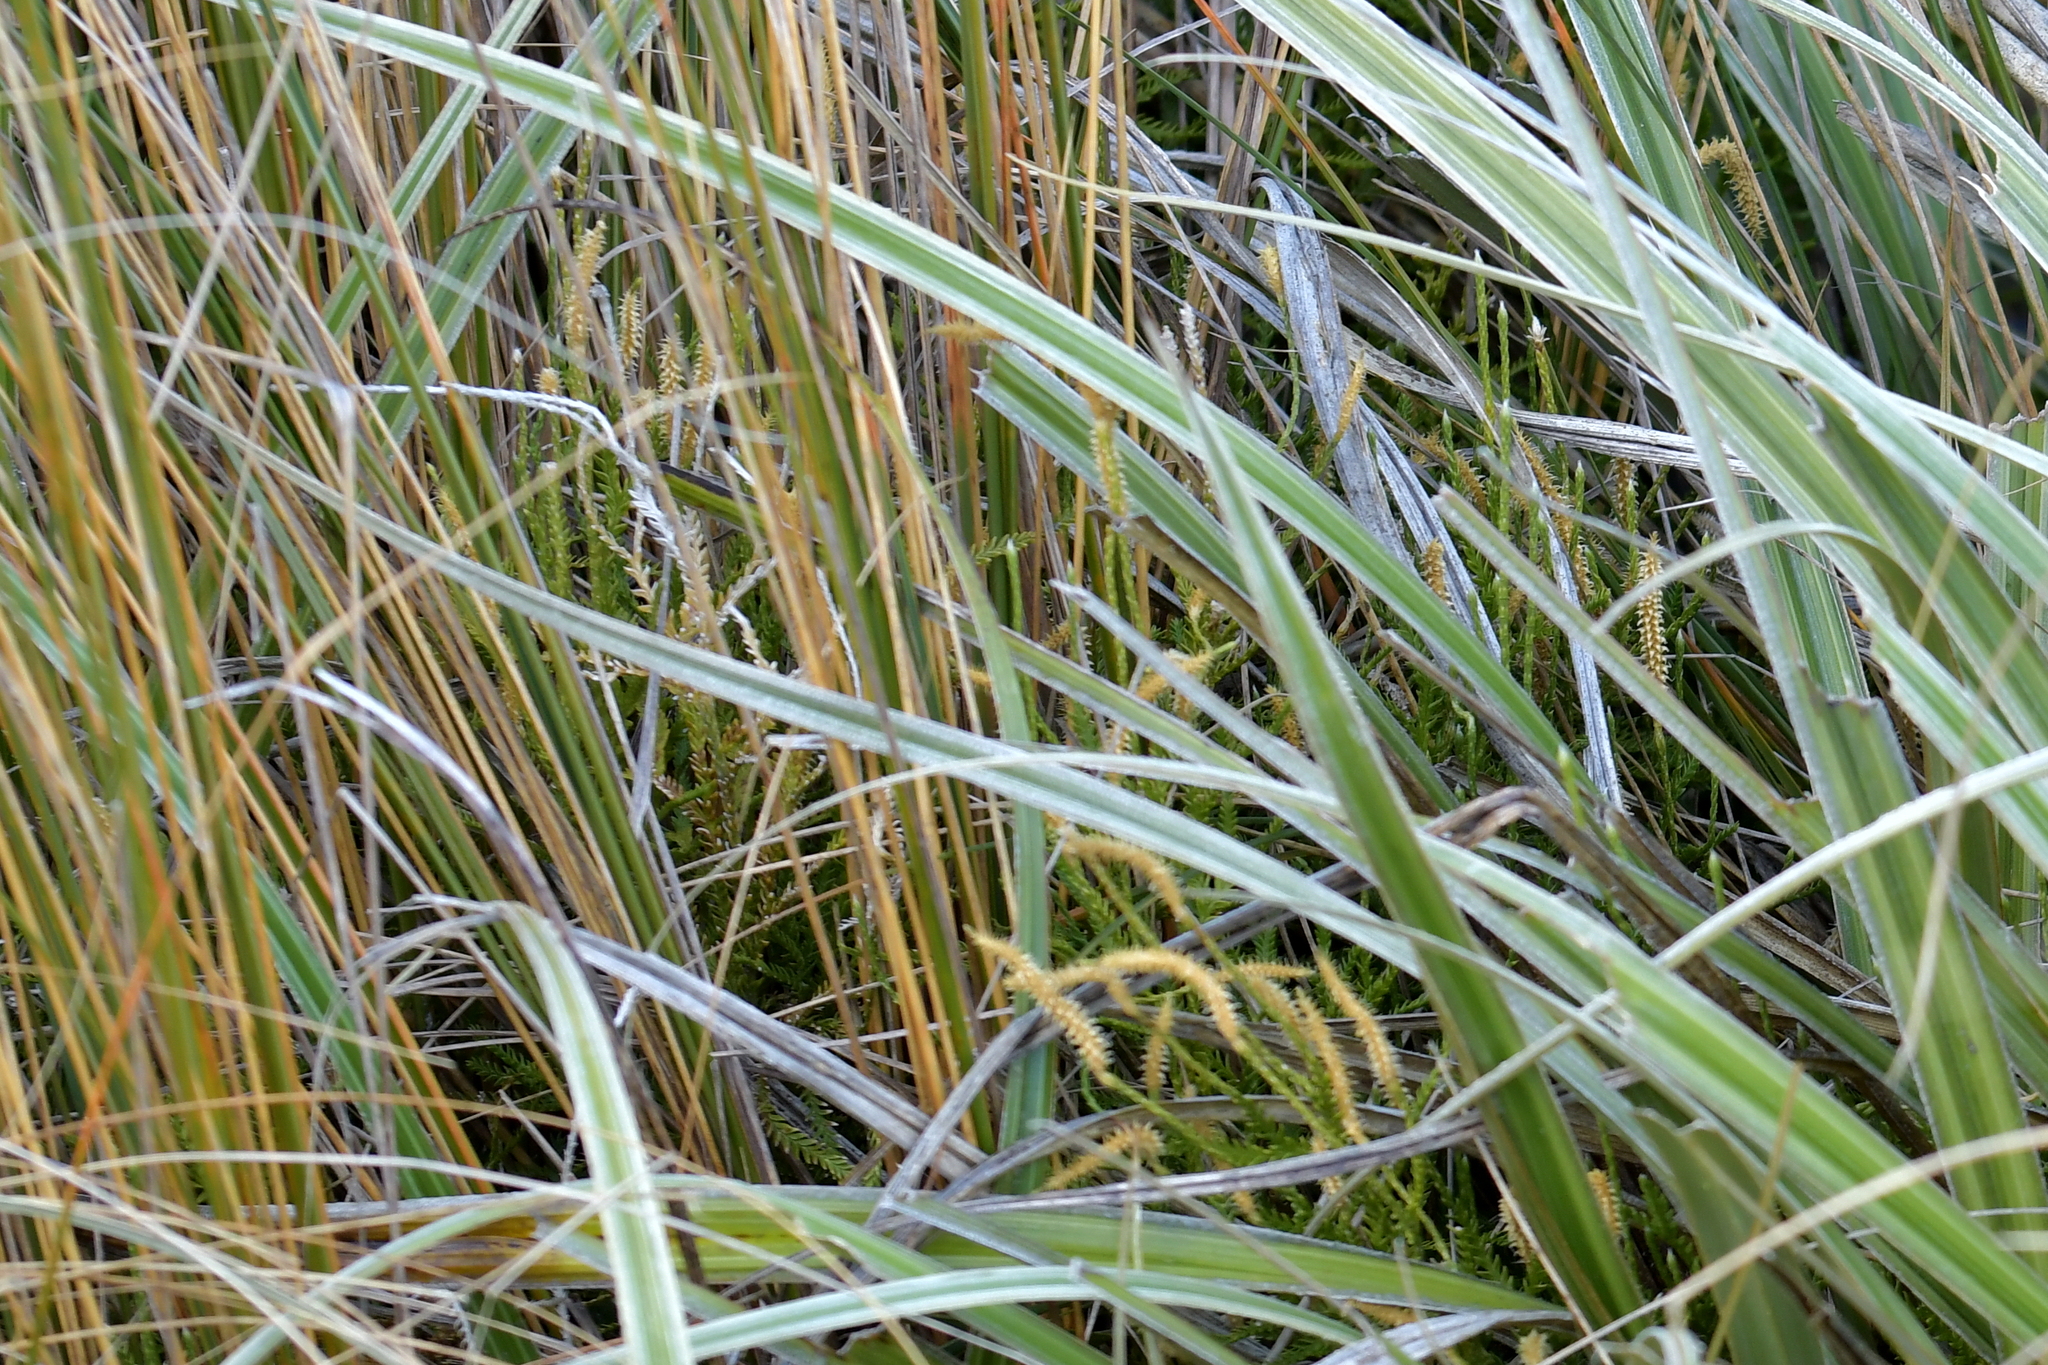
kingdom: Plantae
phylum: Tracheophyta
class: Lycopodiopsida
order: Lycopodiales
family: Lycopodiaceae
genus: Diphasium
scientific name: Diphasium scariosum
